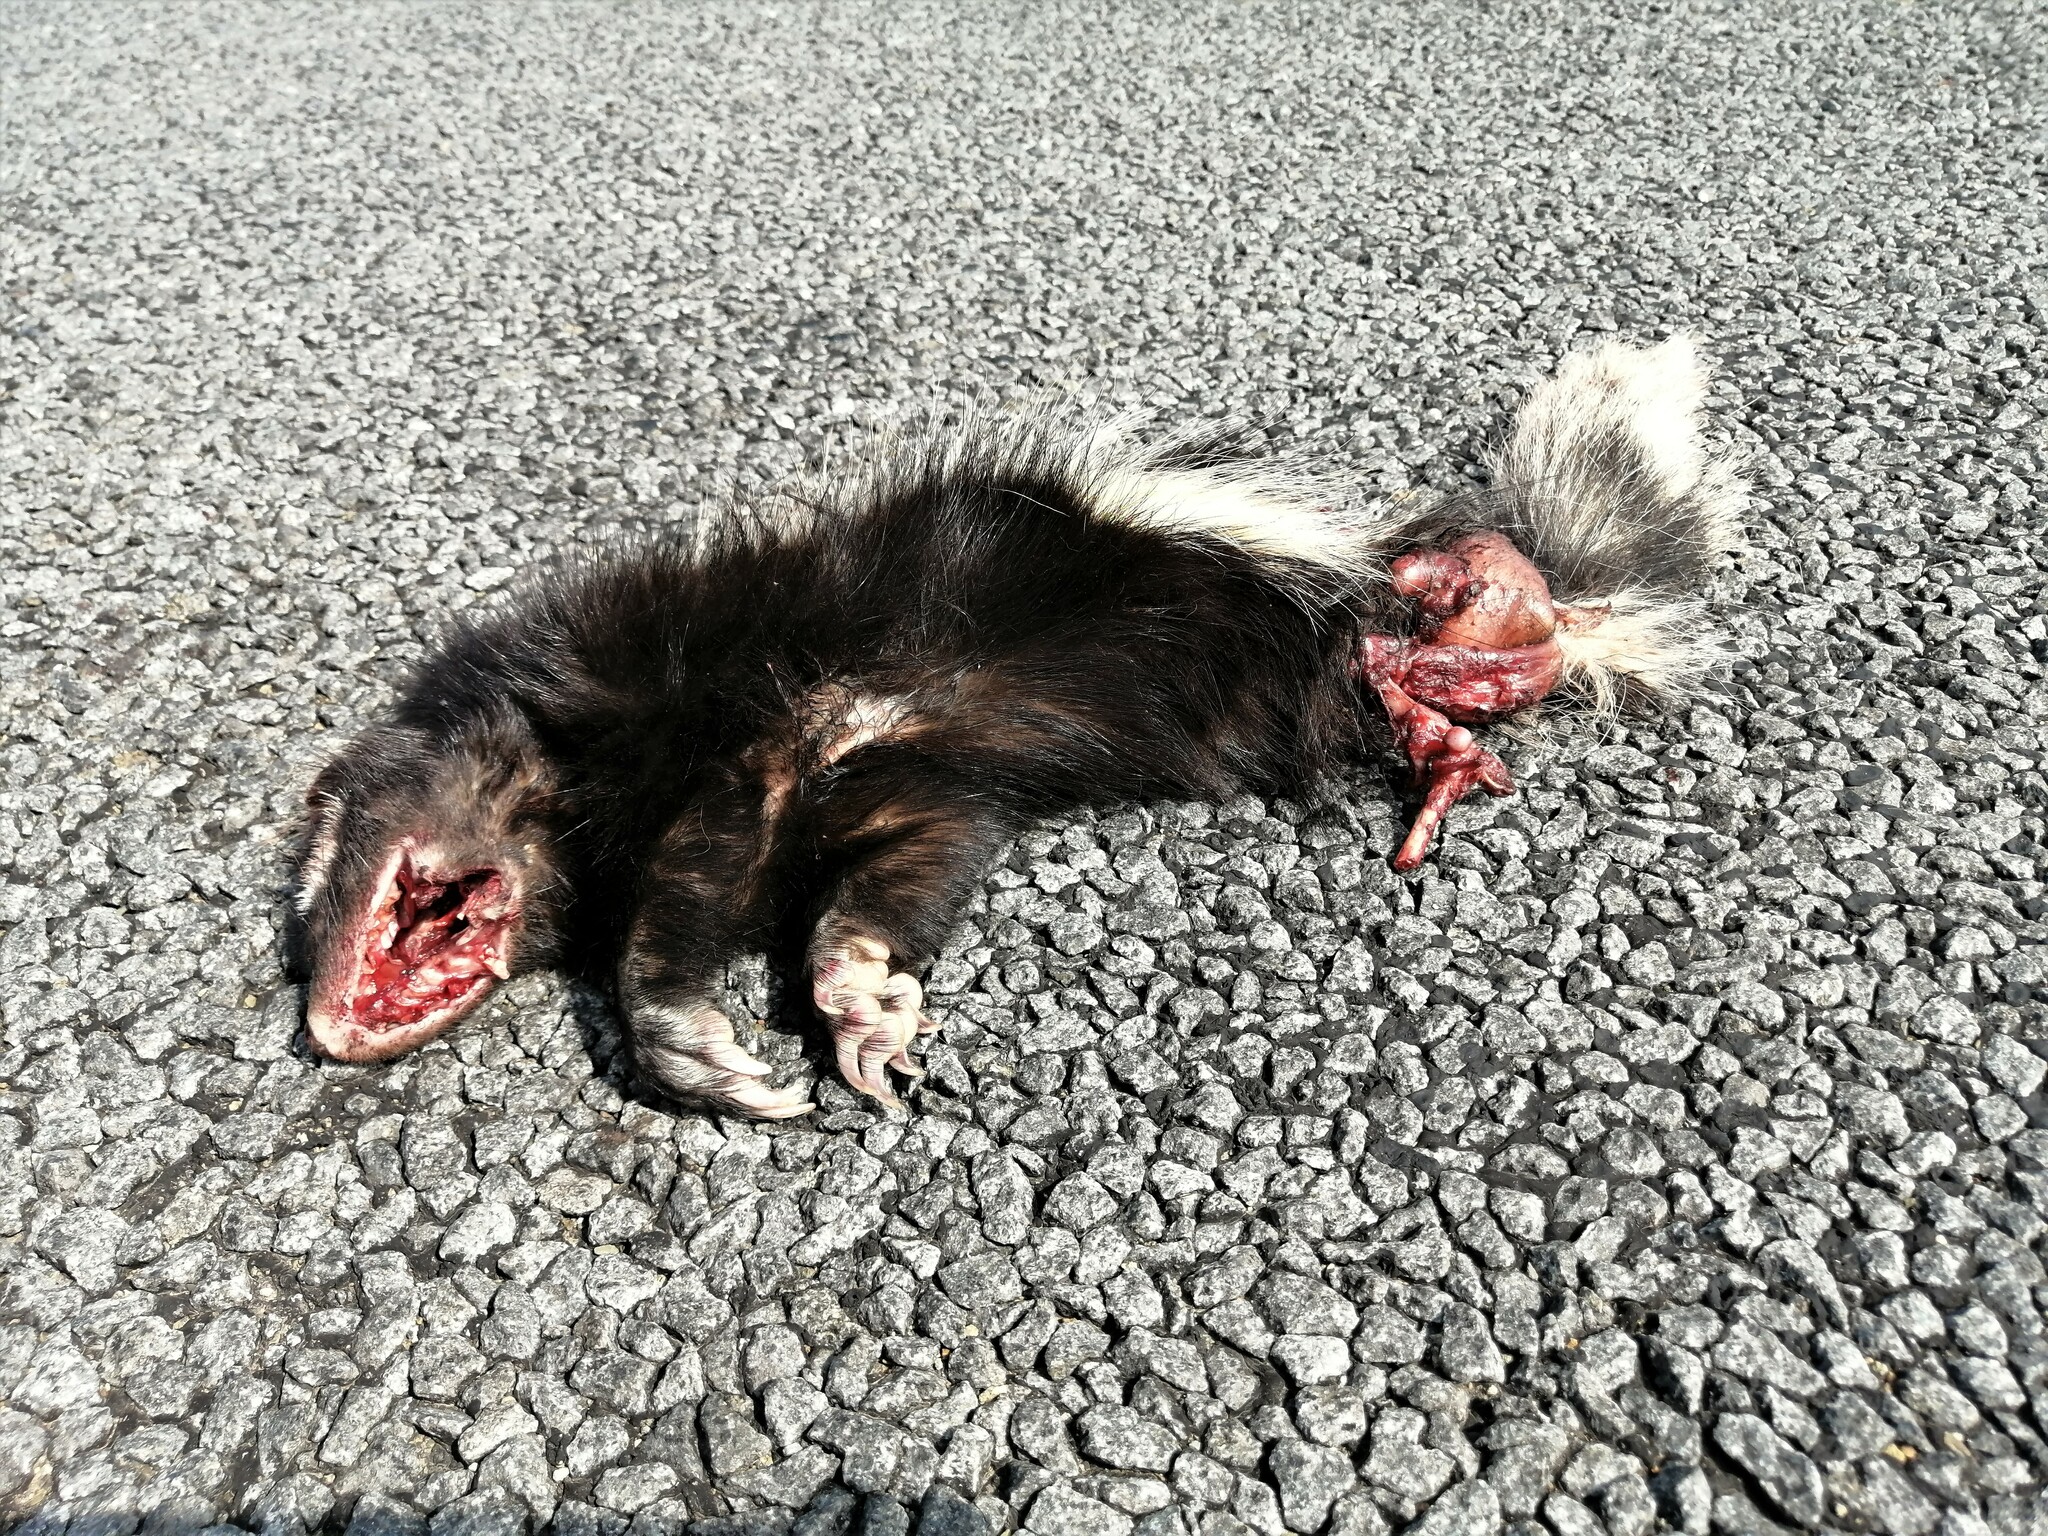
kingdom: Animalia
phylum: Chordata
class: Mammalia
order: Carnivora
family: Mustelidae
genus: Ictonyx
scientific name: Ictonyx striatus
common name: Striped polecat
